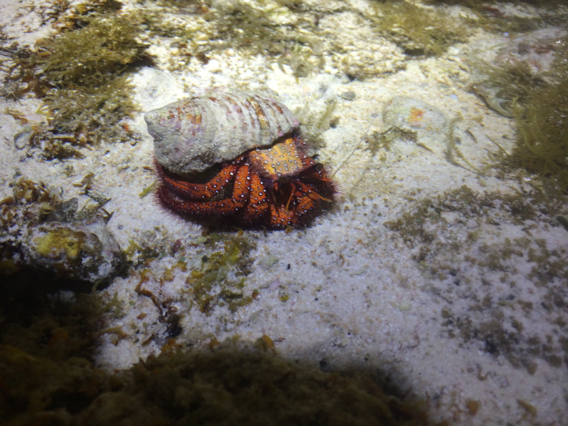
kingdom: Animalia
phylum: Arthropoda
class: Malacostraca
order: Decapoda
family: Diogenidae
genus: Dardanus
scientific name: Dardanus megistos
